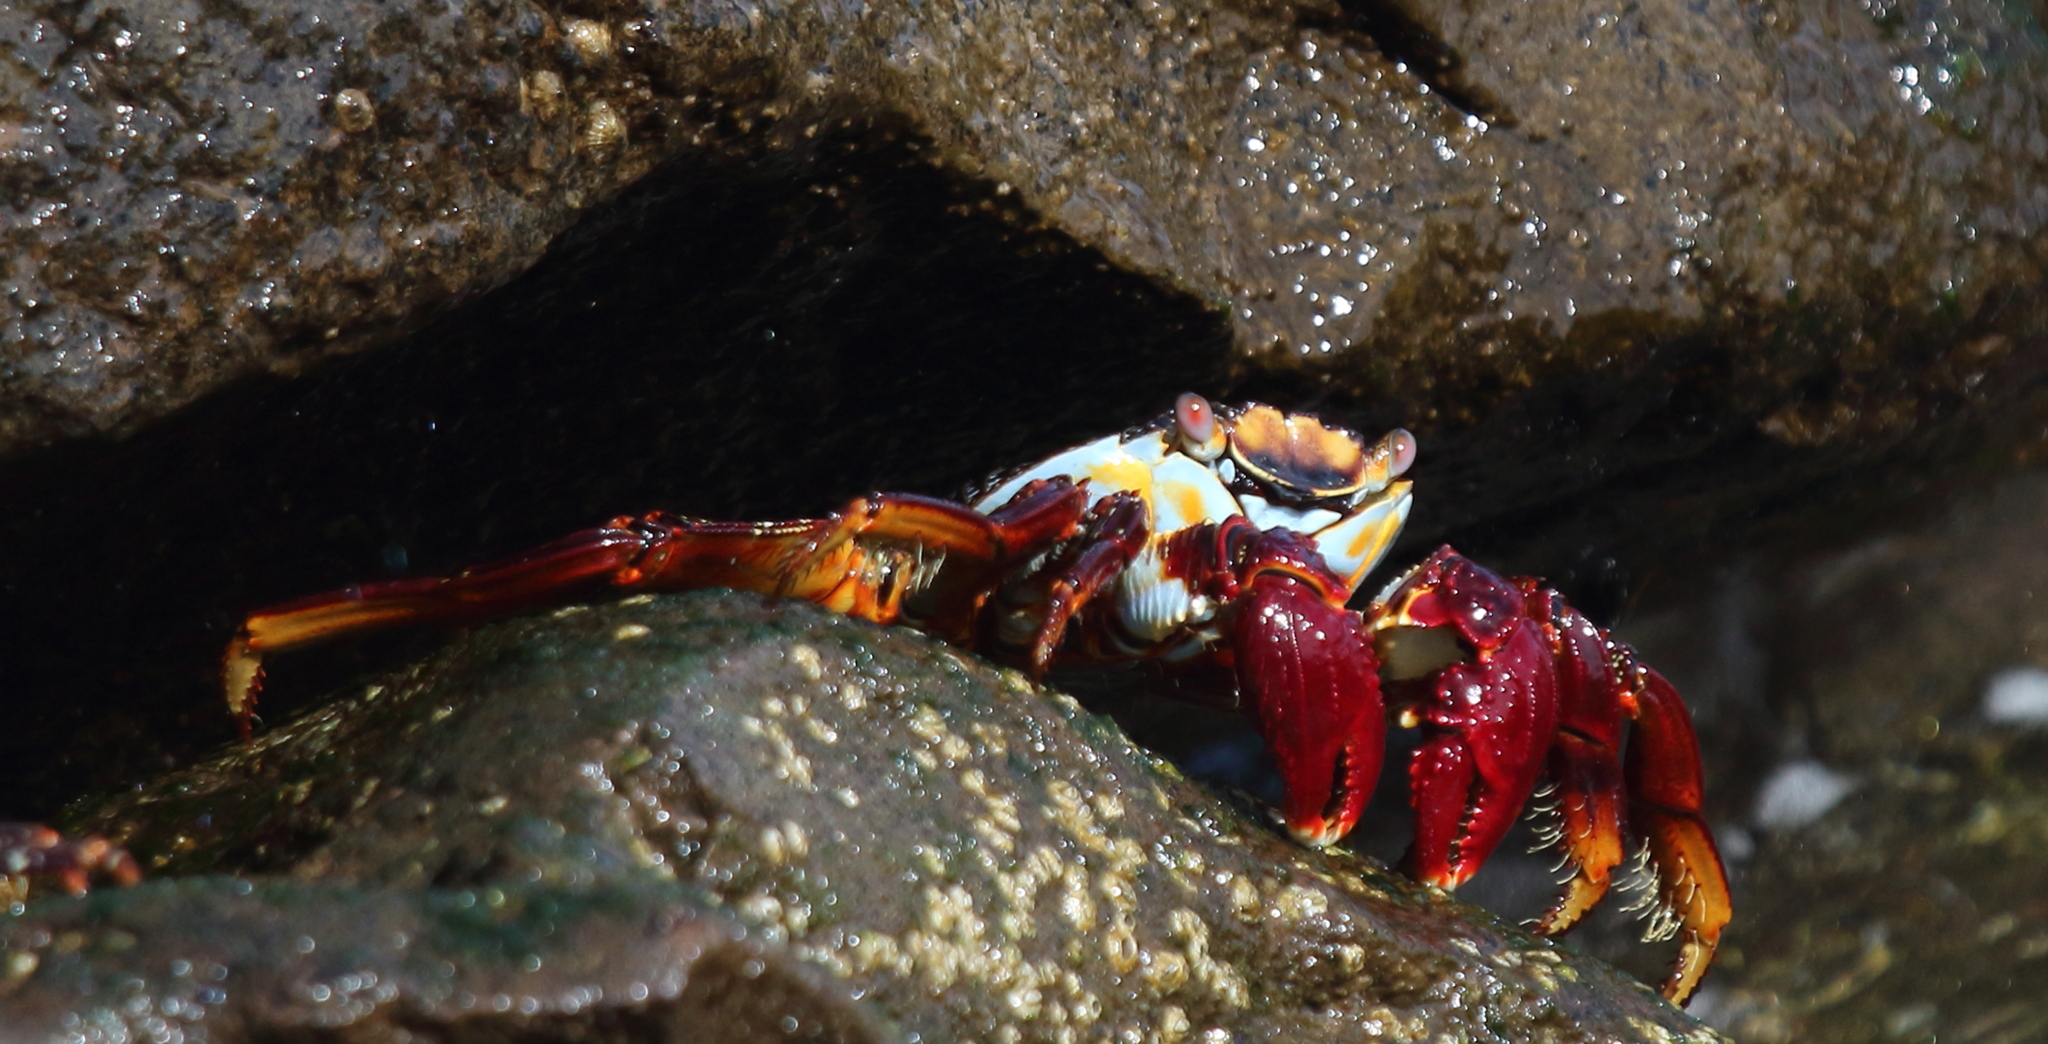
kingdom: Animalia
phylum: Arthropoda
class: Malacostraca
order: Decapoda
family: Grapsidae
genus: Grapsus
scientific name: Grapsus grapsus
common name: Sally lightfoot
